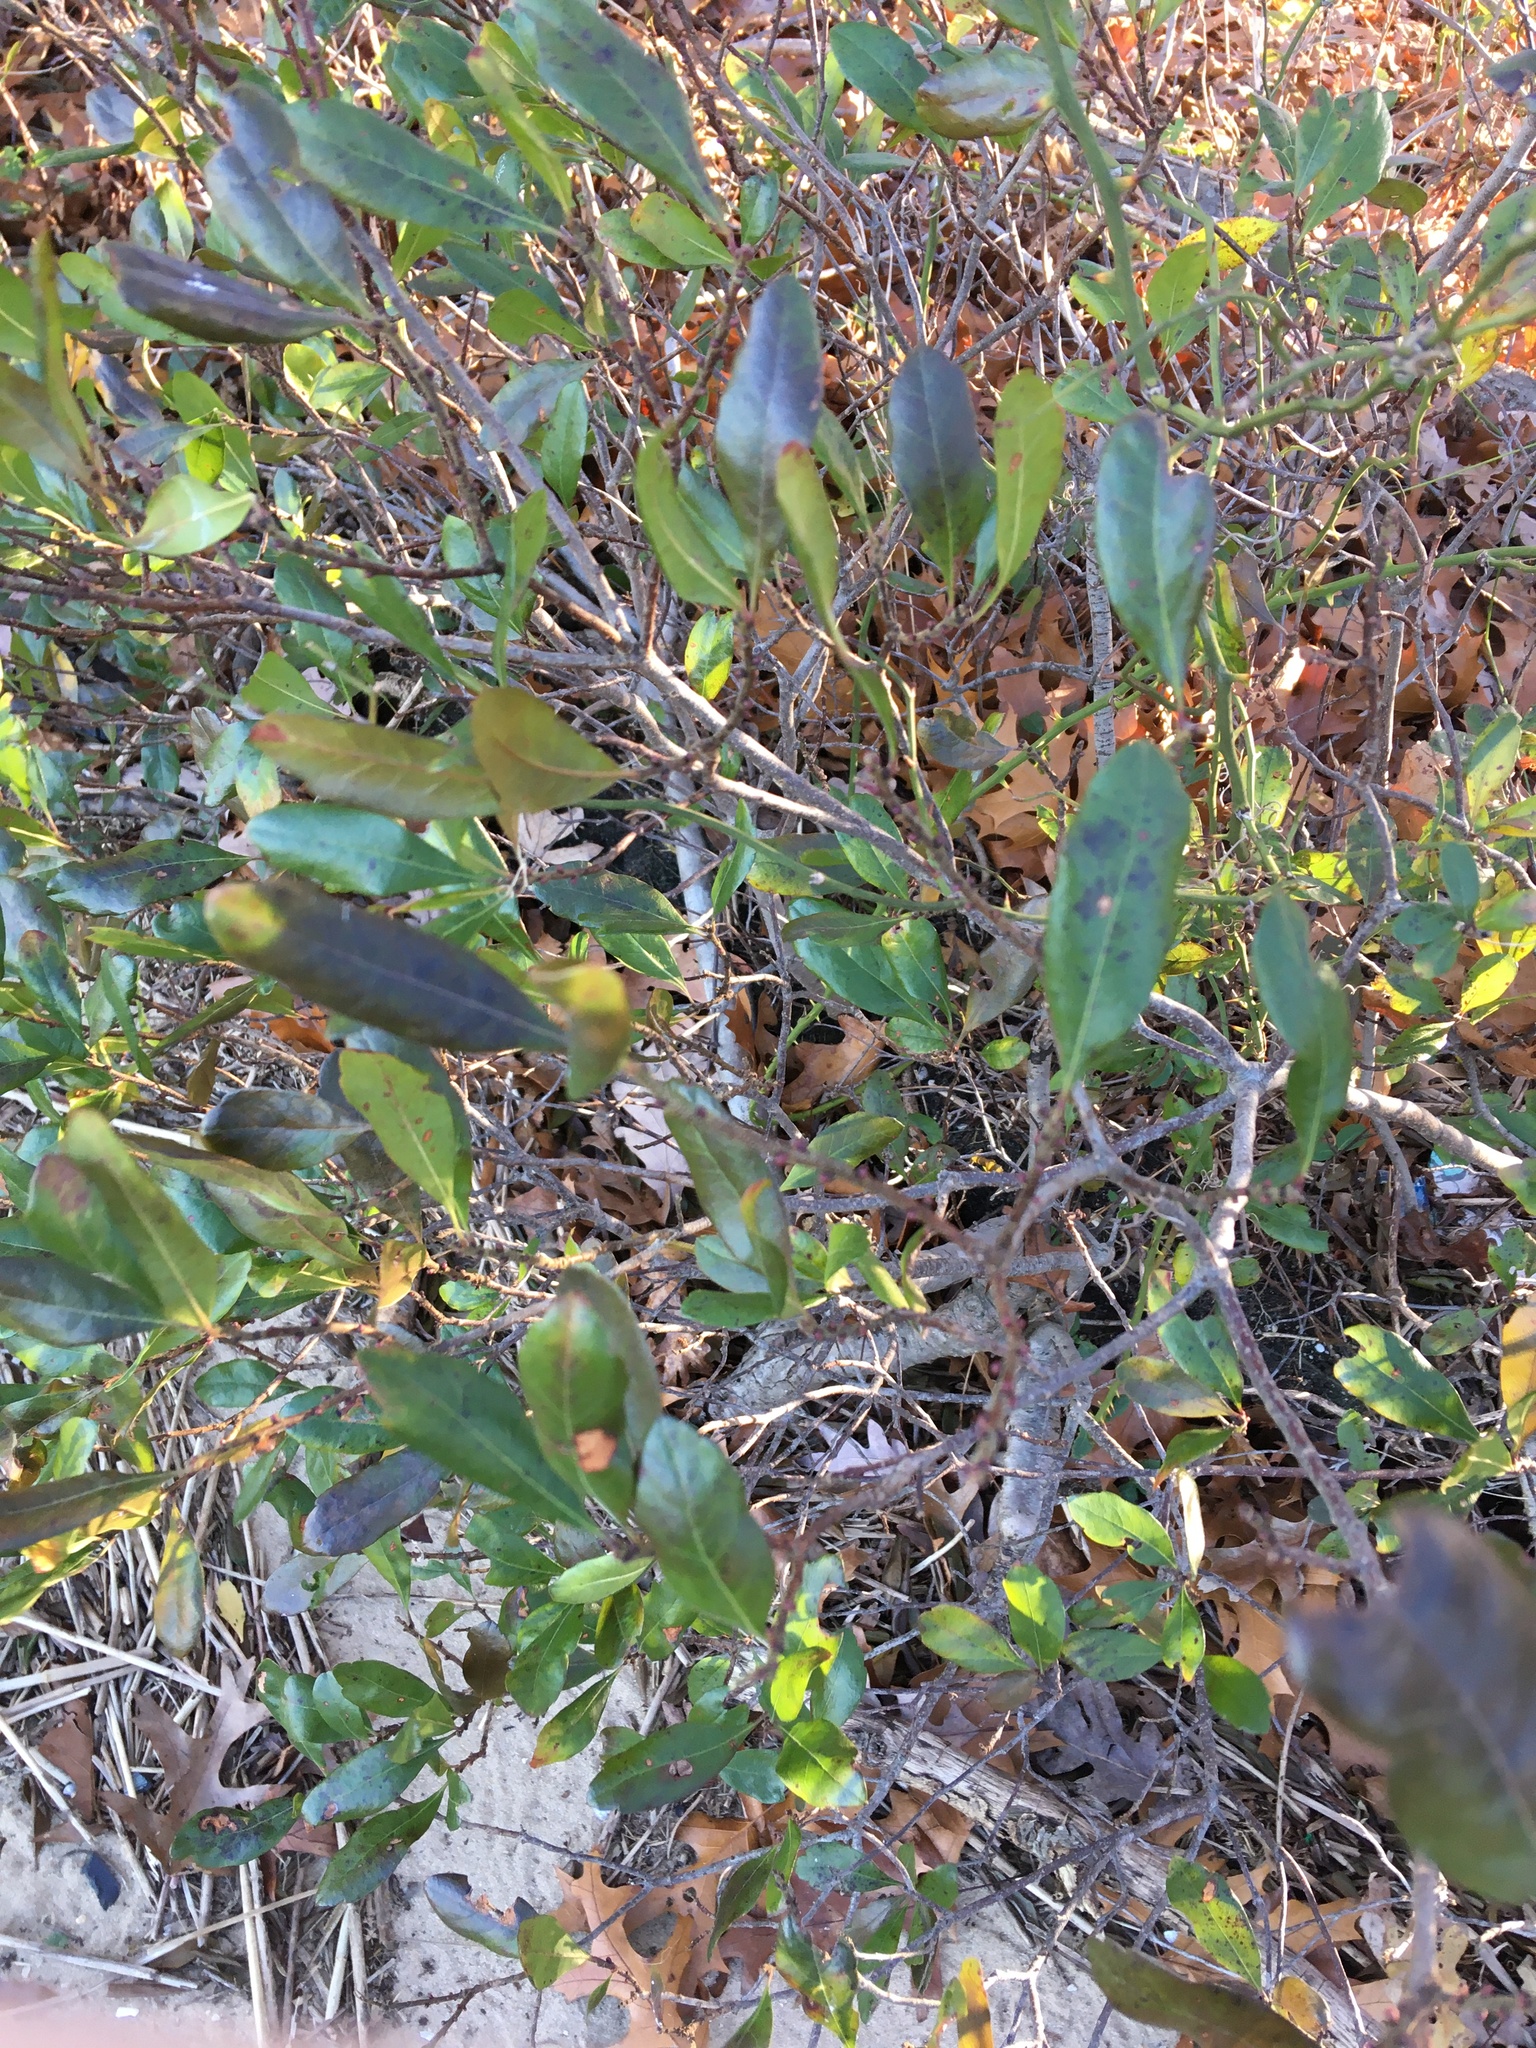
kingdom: Plantae
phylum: Tracheophyta
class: Magnoliopsida
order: Fagales
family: Myricaceae
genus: Morella
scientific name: Morella pensylvanica
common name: Northern bayberry
